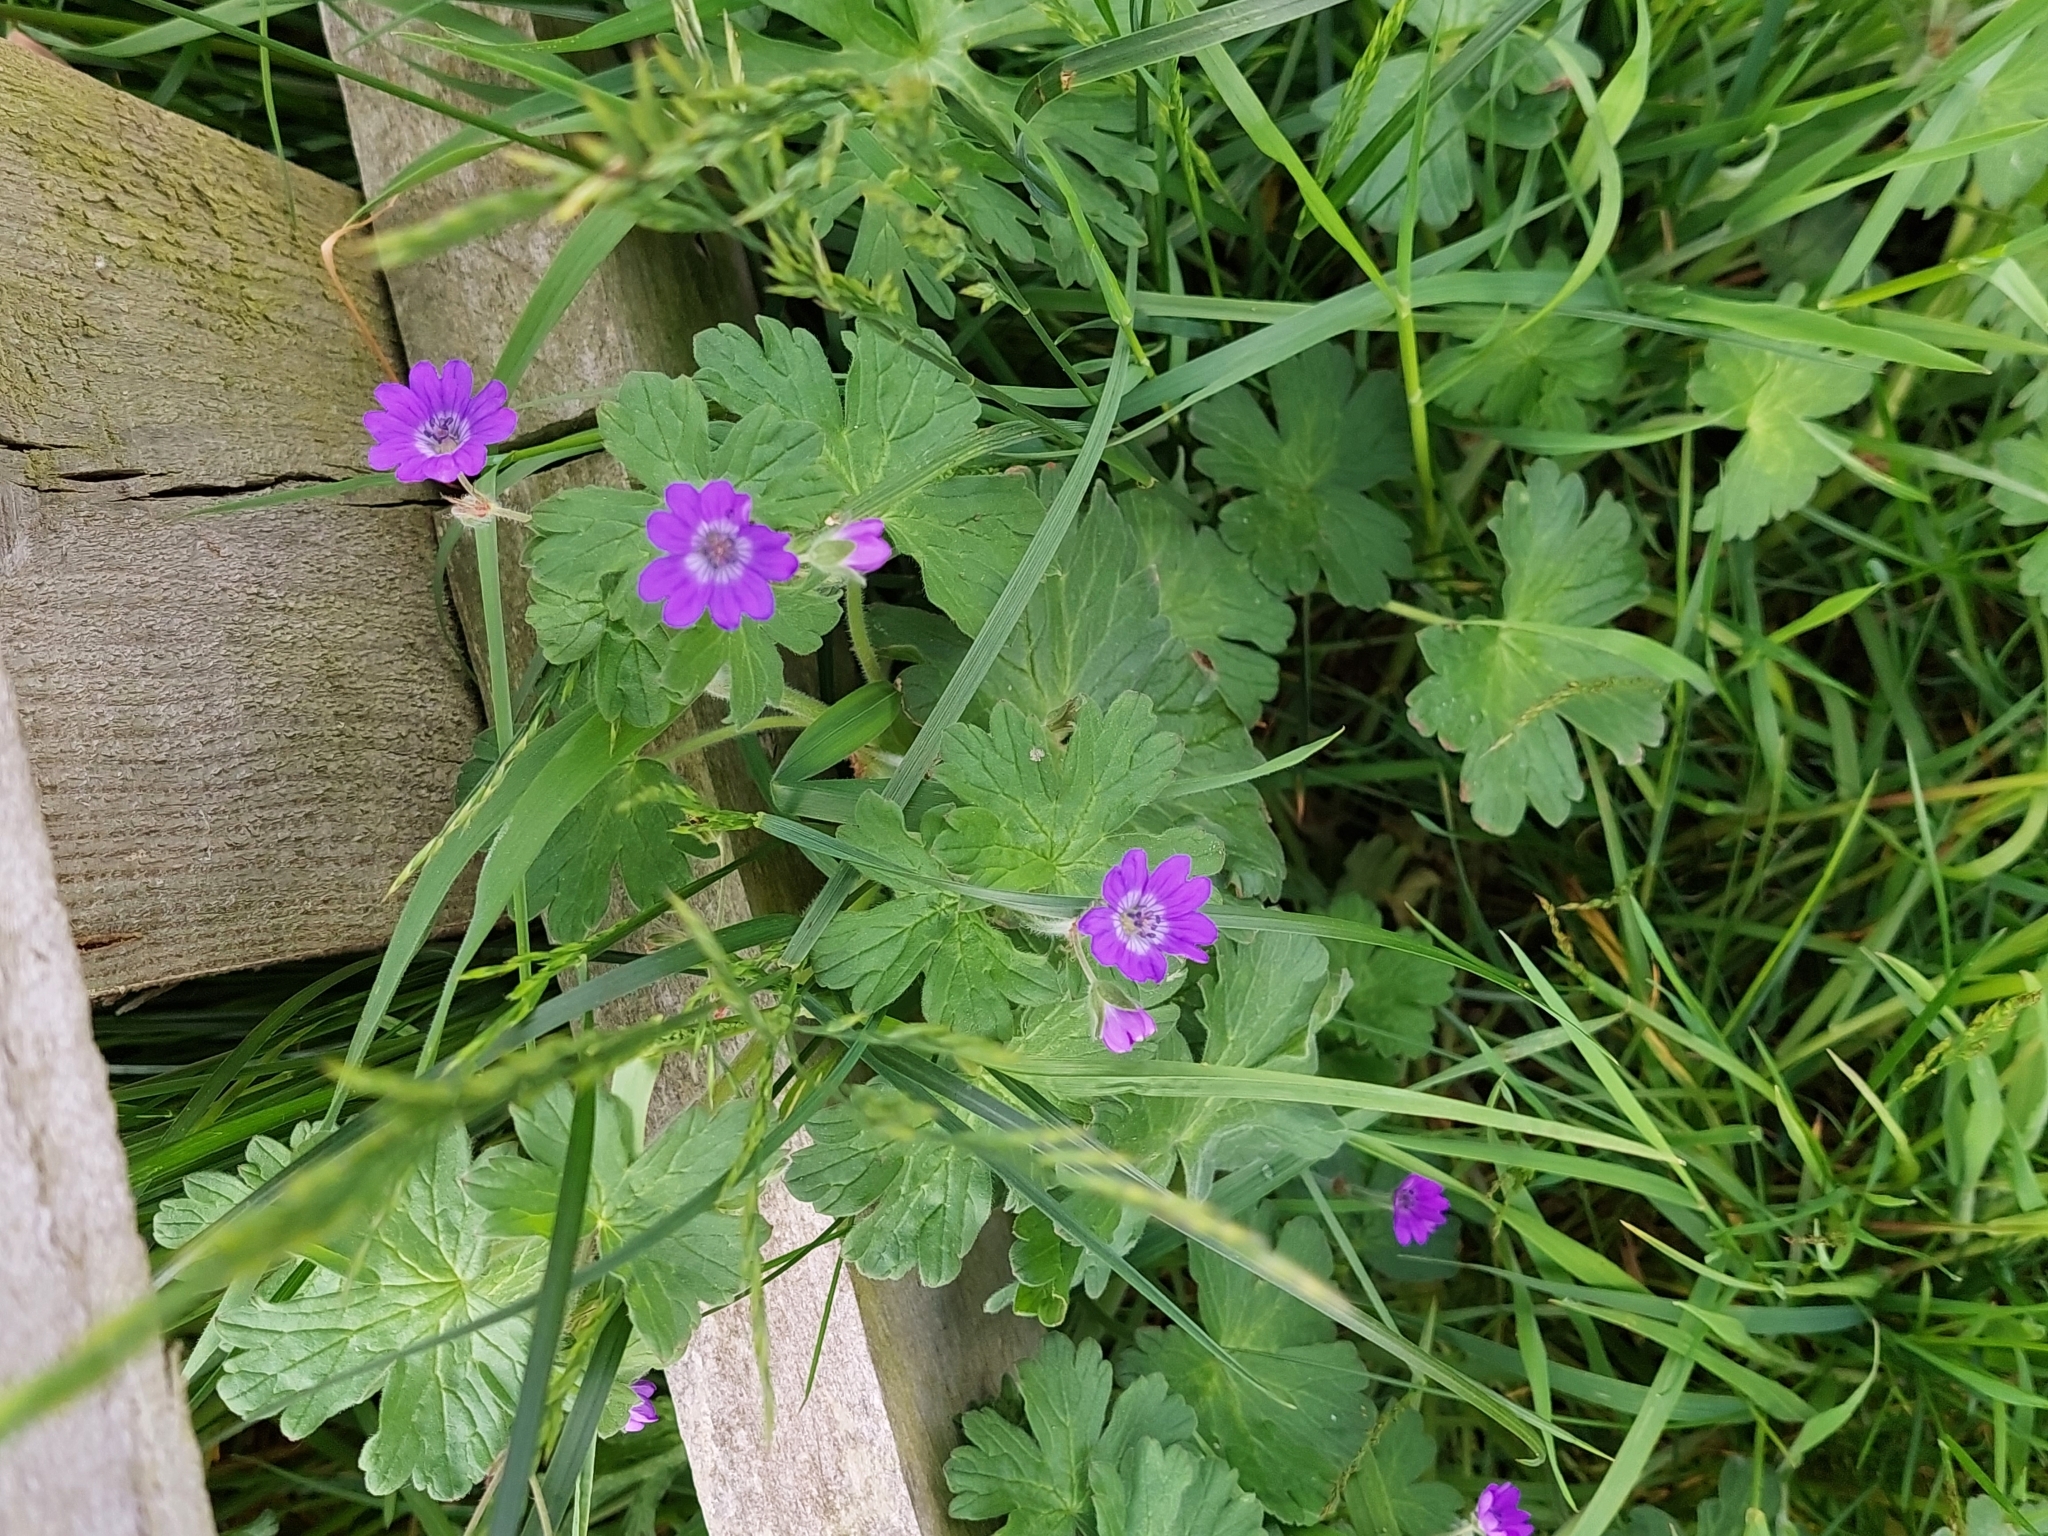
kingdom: Plantae
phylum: Tracheophyta
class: Magnoliopsida
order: Geraniales
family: Geraniaceae
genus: Geranium
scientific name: Geranium pyrenaicum
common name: Hedgerow crane's-bill
